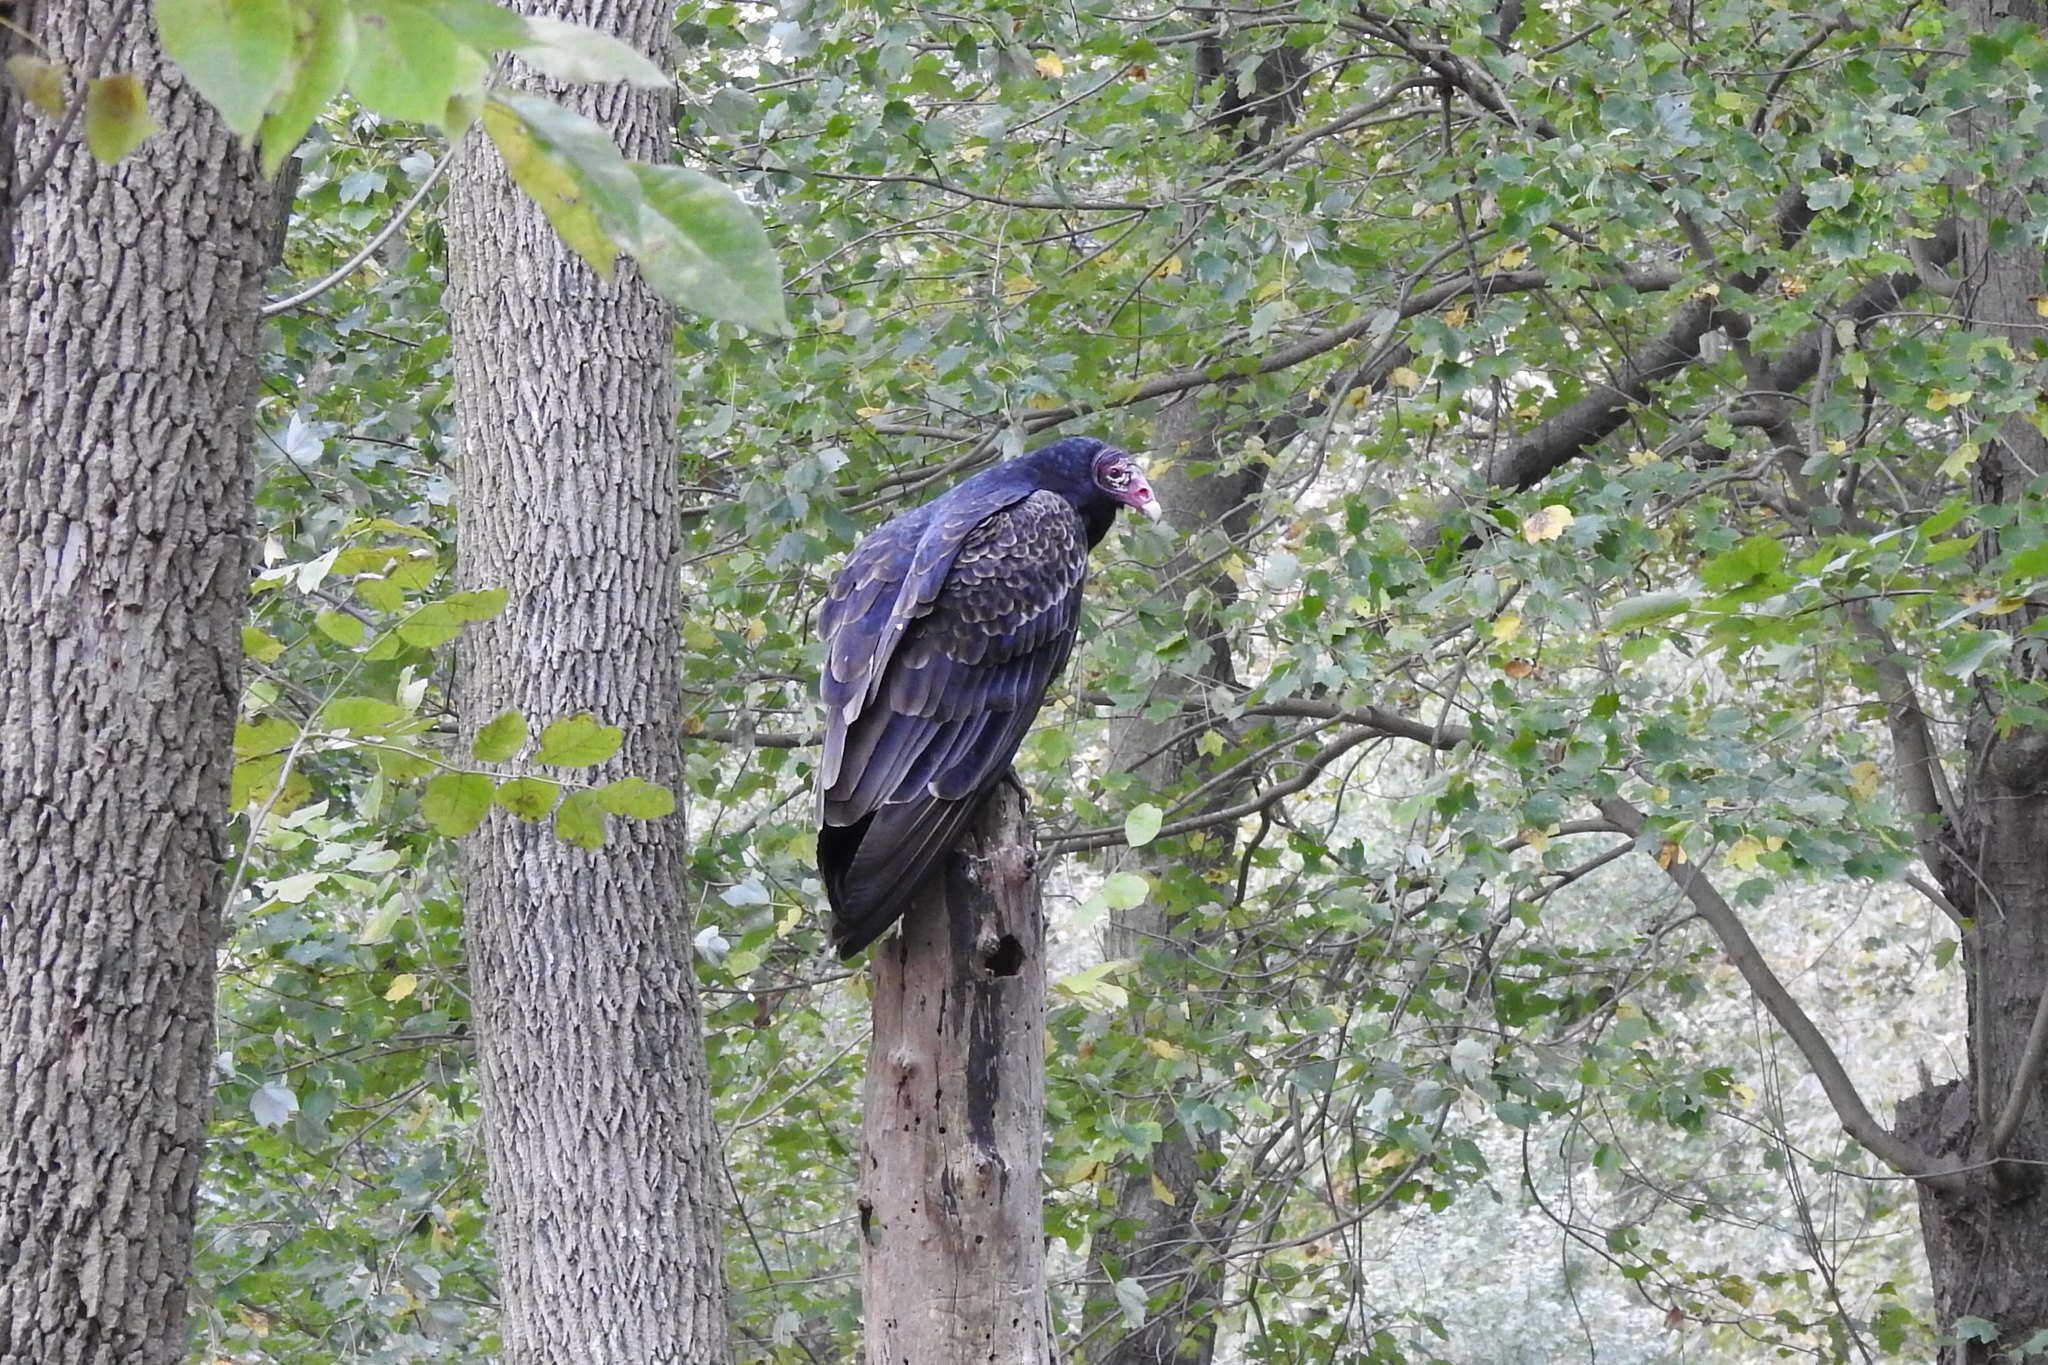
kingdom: Animalia
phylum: Chordata
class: Aves
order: Accipitriformes
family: Cathartidae
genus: Cathartes
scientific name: Cathartes aura
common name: Turkey vulture
